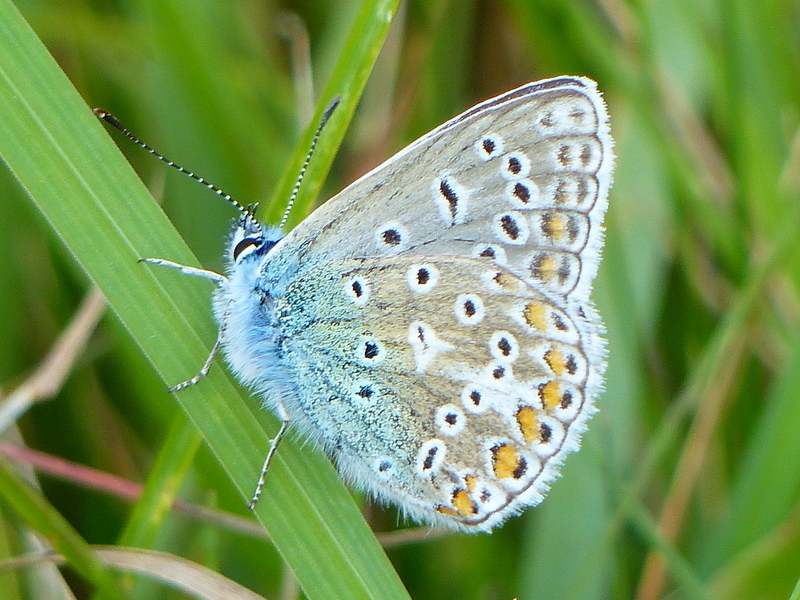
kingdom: Animalia
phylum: Arthropoda
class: Insecta
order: Lepidoptera
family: Lycaenidae
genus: Polyommatus
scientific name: Polyommatus icarus
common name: Common blue
